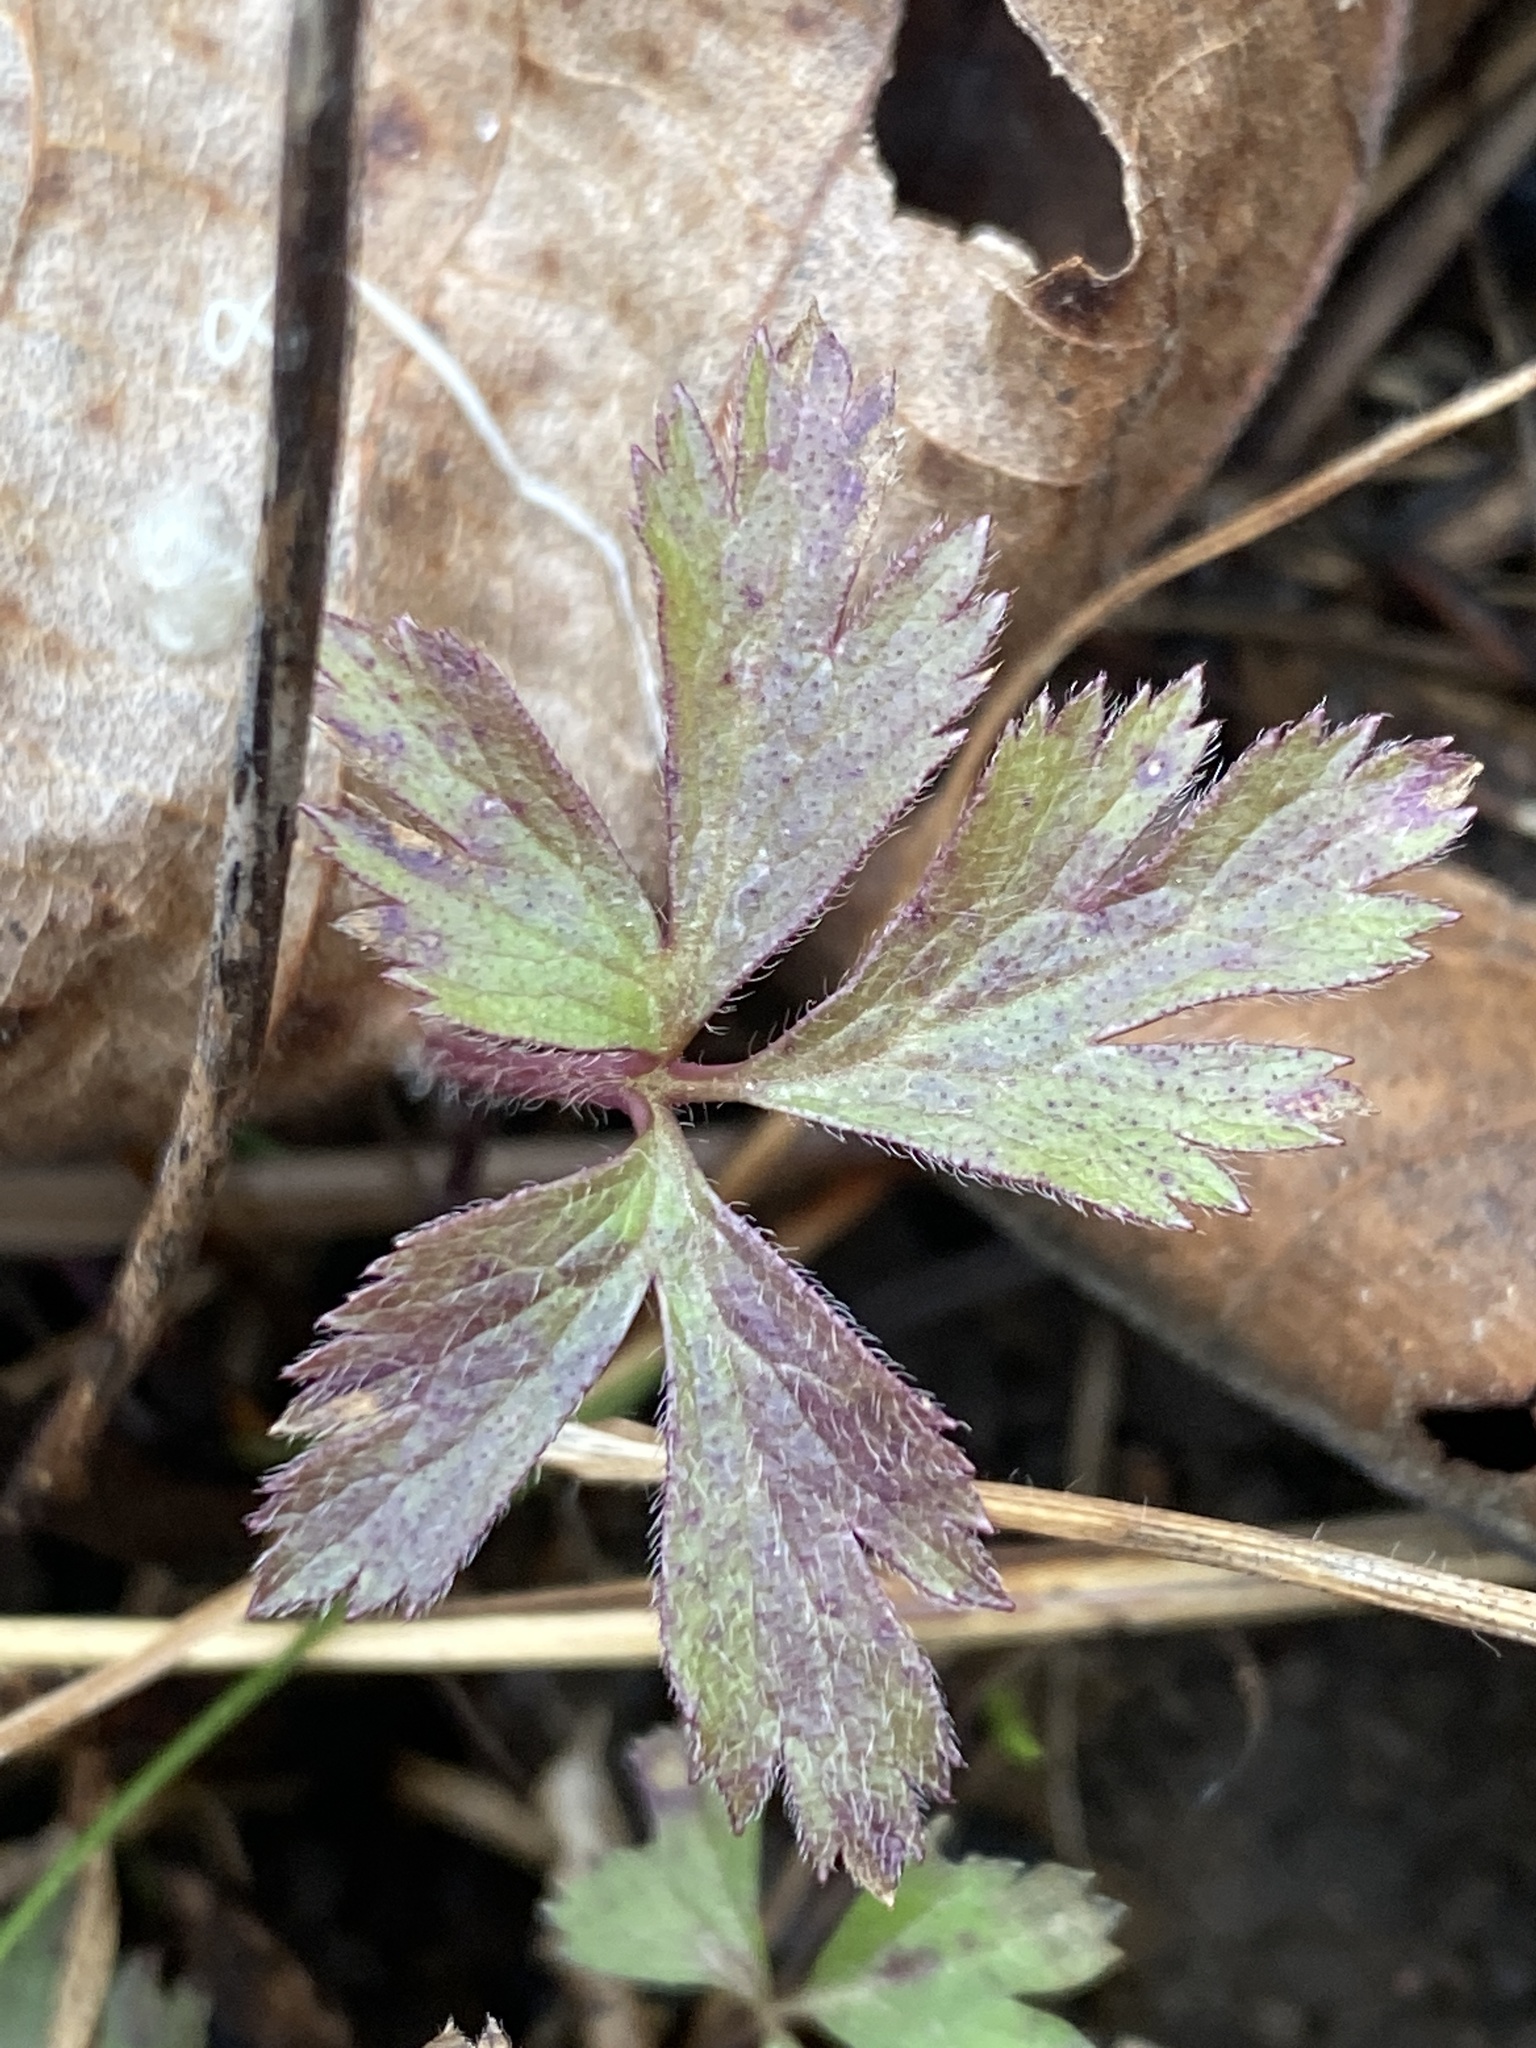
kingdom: Plantae
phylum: Tracheophyta
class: Magnoliopsida
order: Ranunculales
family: Ranunculaceae
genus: Anemone
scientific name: Anemone virginiana
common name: Tall anemone
